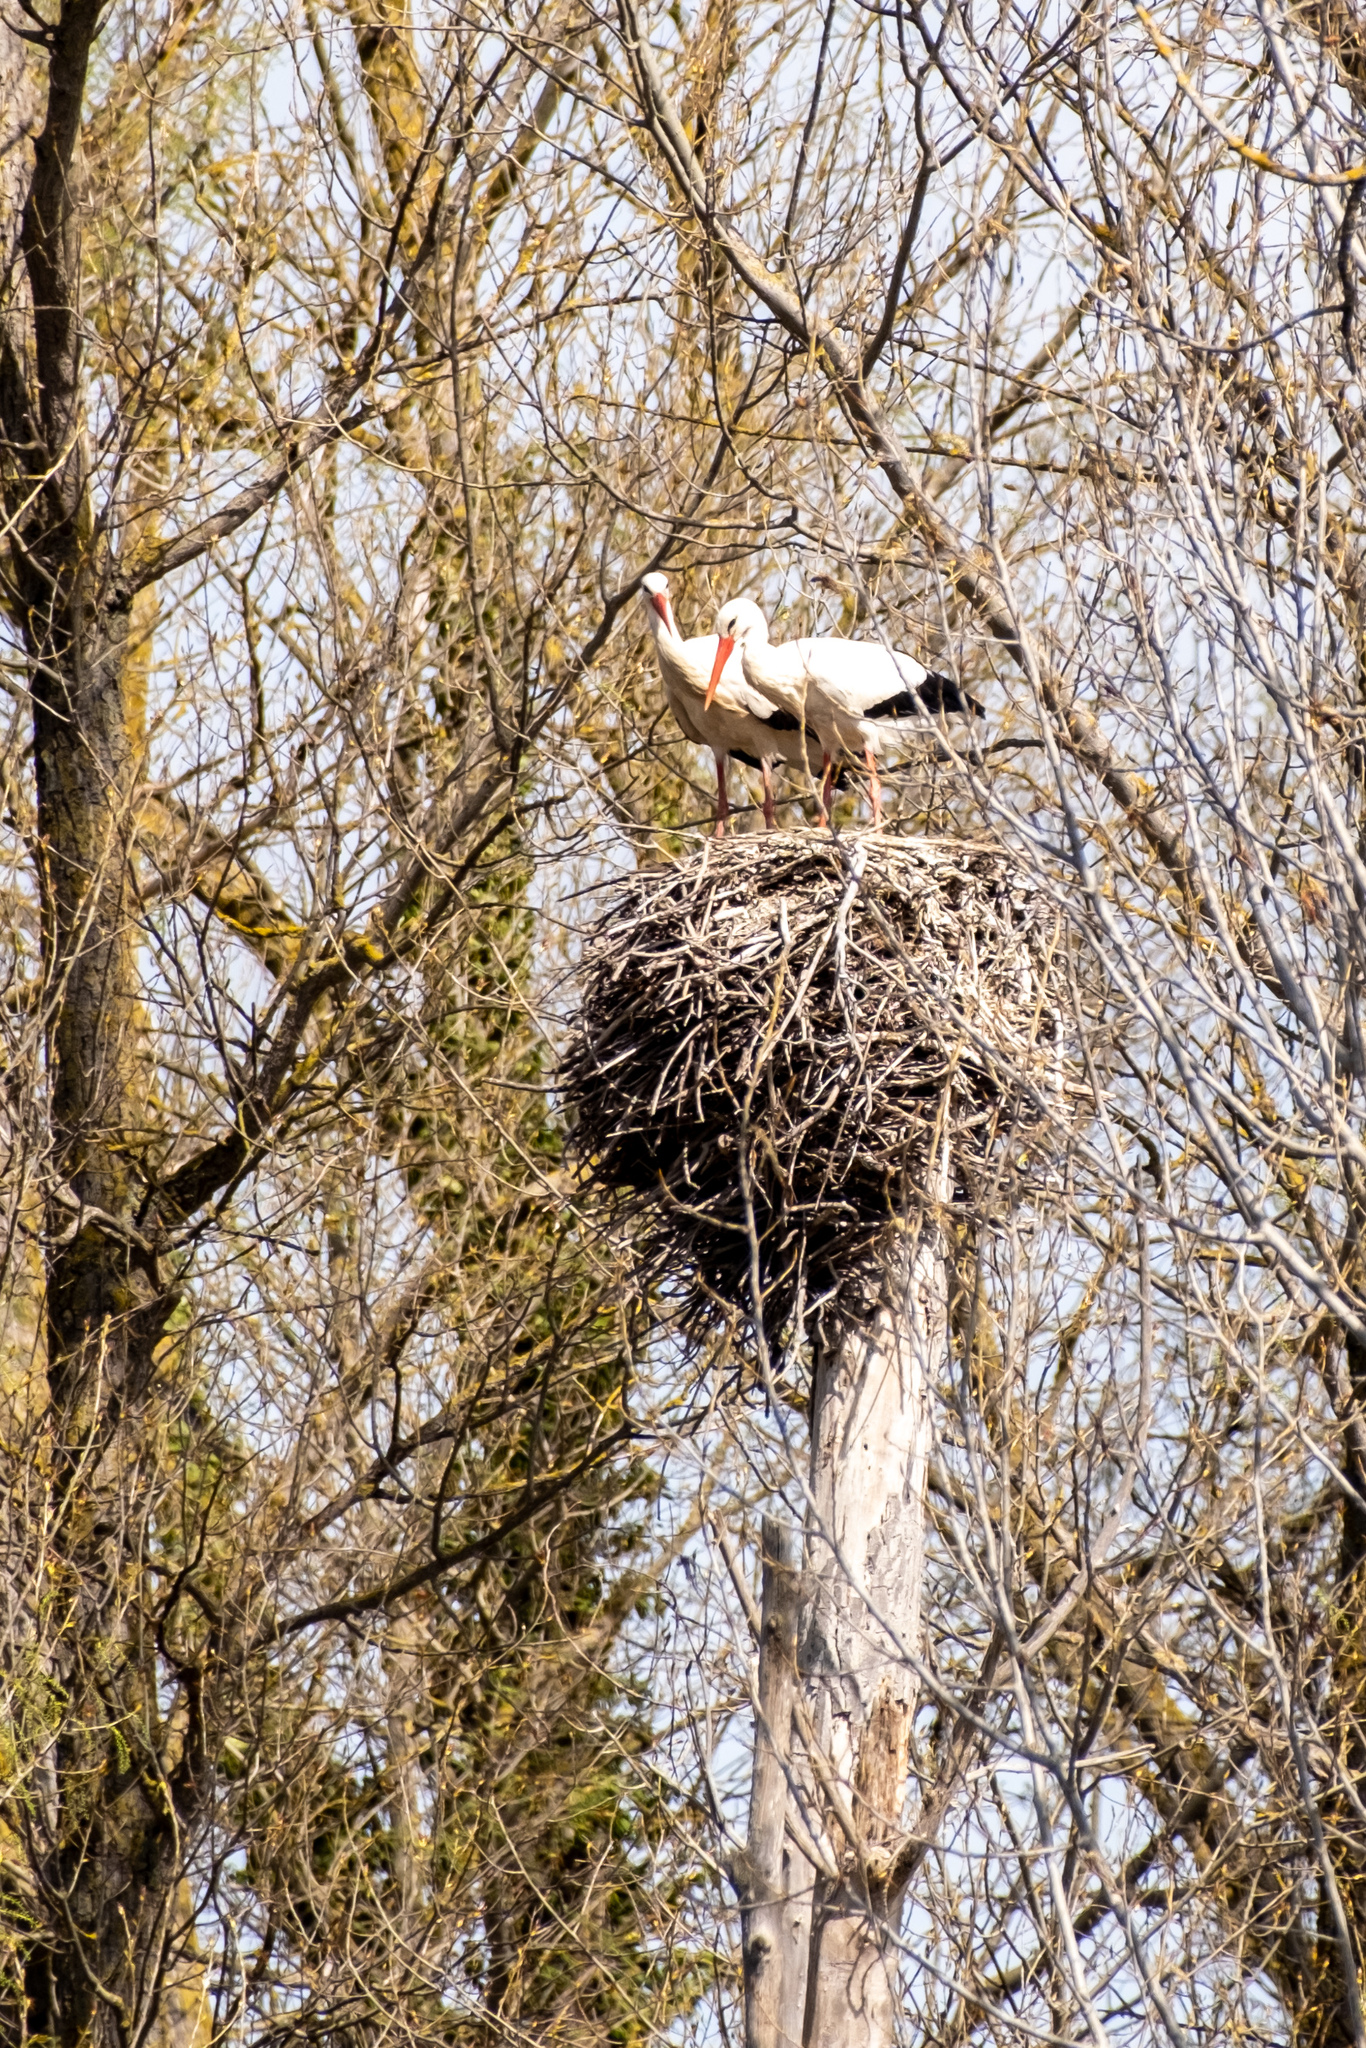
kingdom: Animalia
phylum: Chordata
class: Aves
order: Ciconiiformes
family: Ciconiidae
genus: Ciconia
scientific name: Ciconia ciconia
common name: White stork
